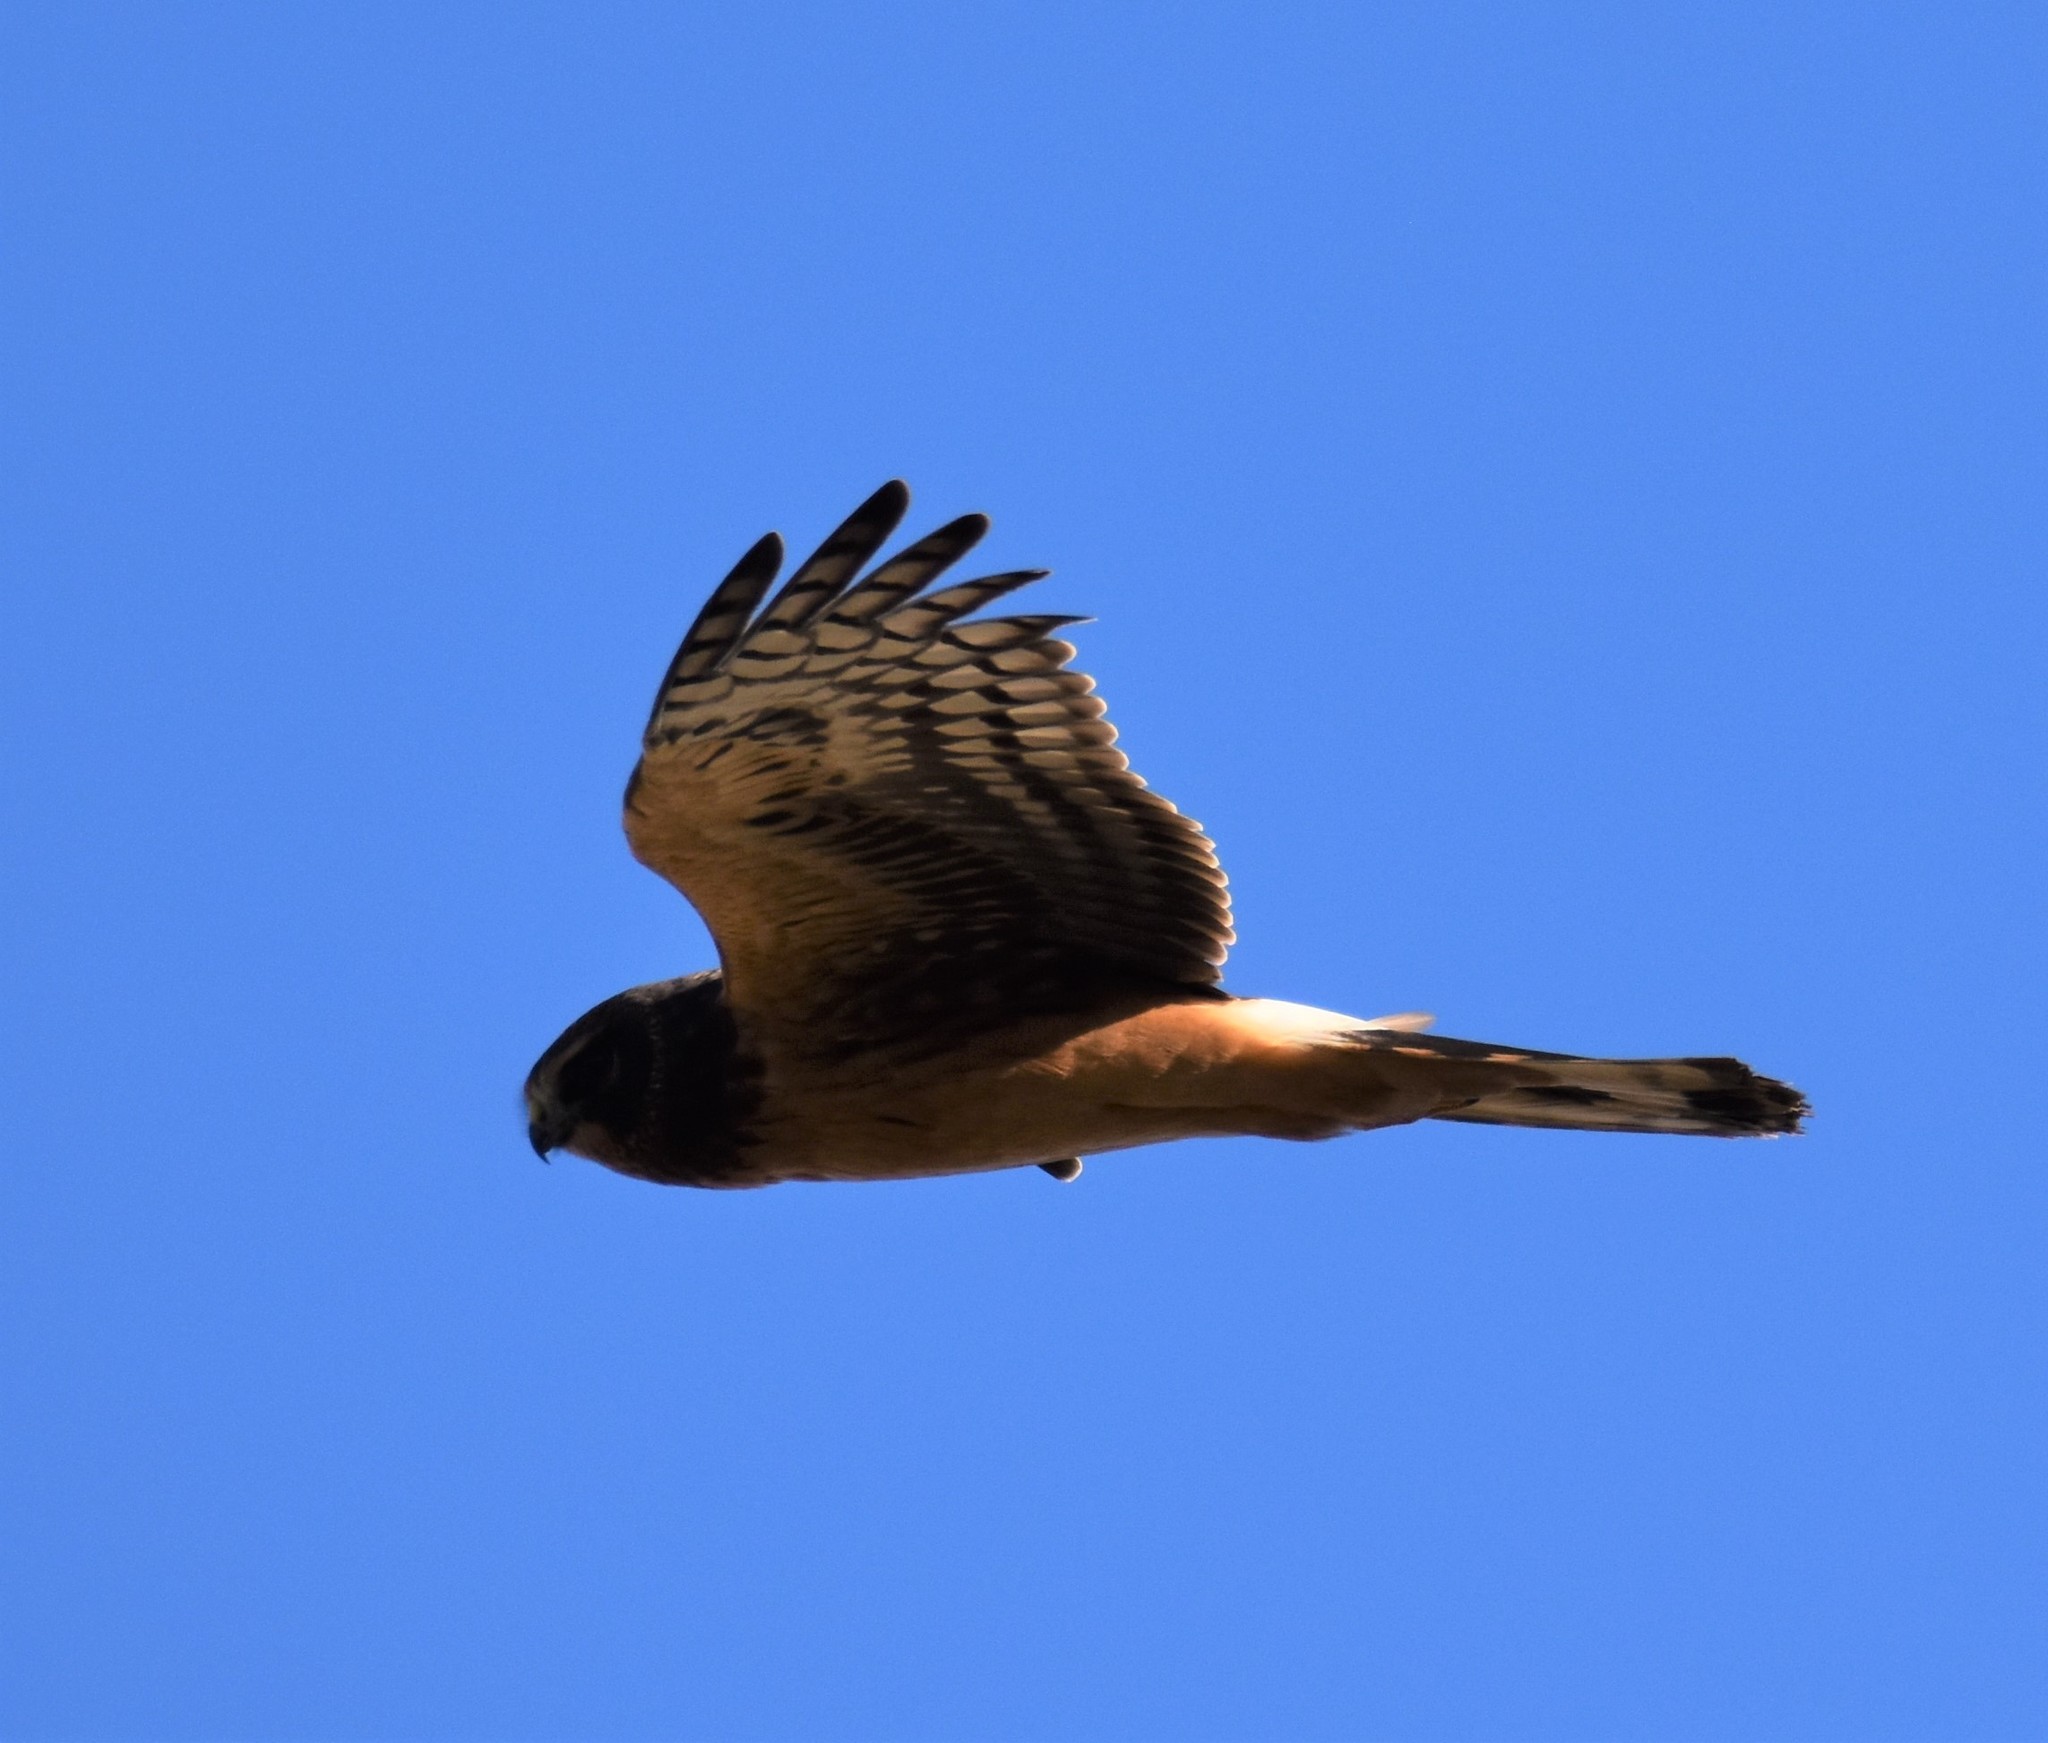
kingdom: Animalia
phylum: Chordata
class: Aves
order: Accipitriformes
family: Accipitridae
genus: Circus
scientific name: Circus cyaneus
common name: Hen harrier
